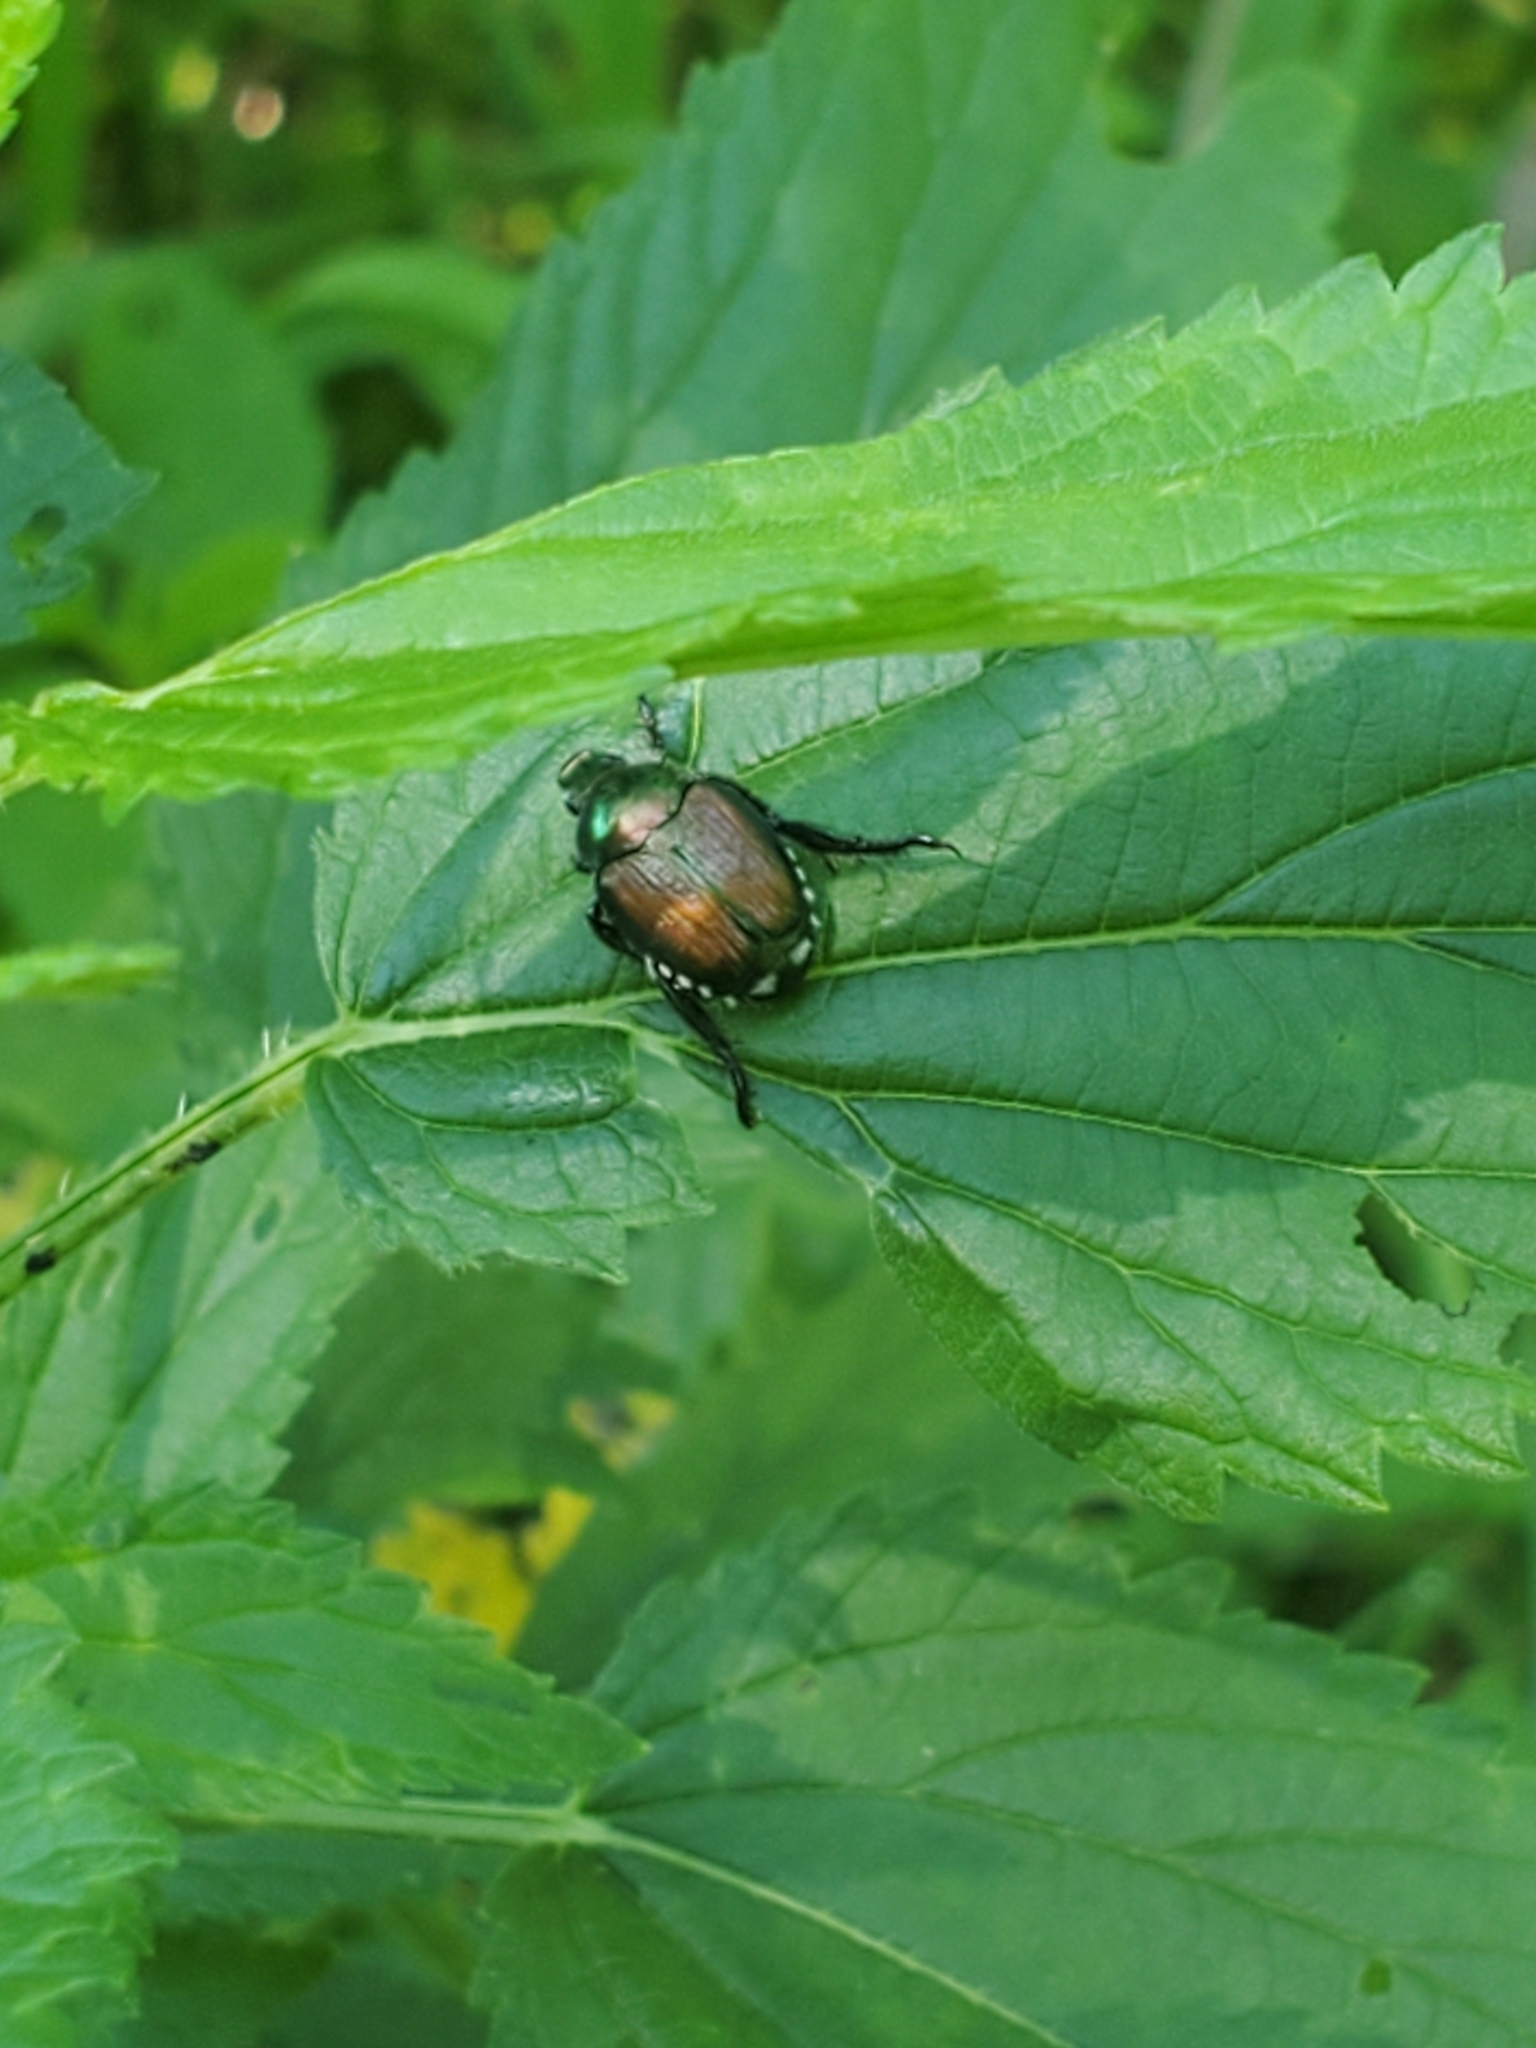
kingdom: Animalia
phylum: Arthropoda
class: Insecta
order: Coleoptera
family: Scarabaeidae
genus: Popillia
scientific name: Popillia japonica
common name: Japanese beetle
